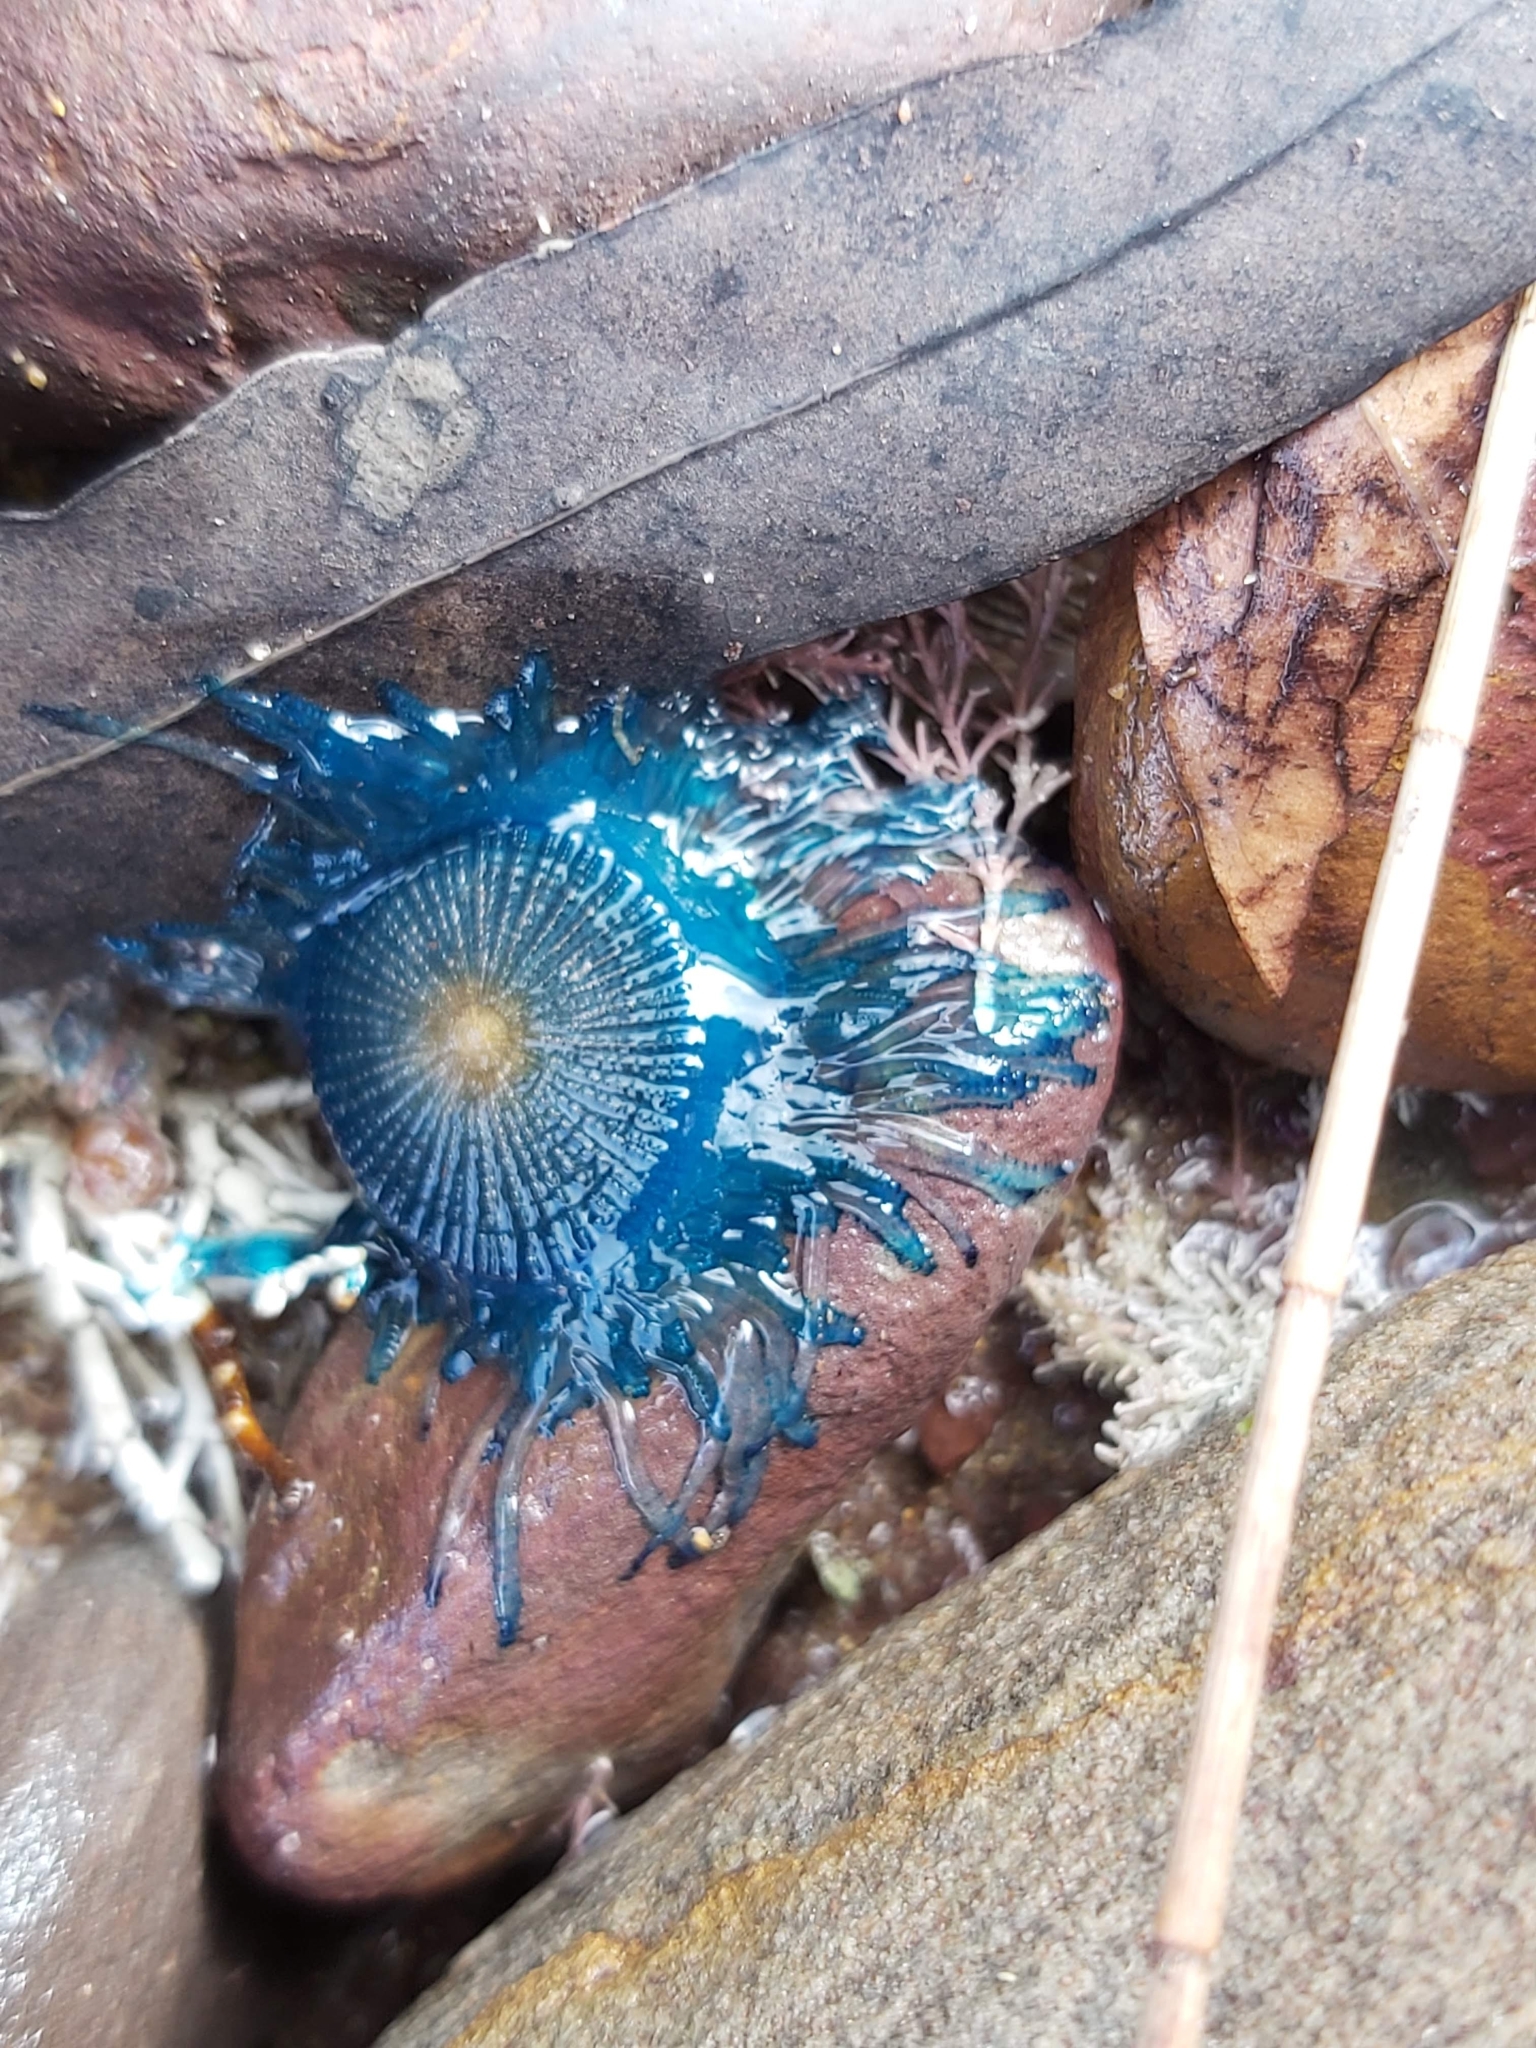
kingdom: Animalia
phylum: Cnidaria
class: Hydrozoa
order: Anthoathecata
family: Porpitidae
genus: Porpita
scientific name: Porpita porpita
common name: Blue button
